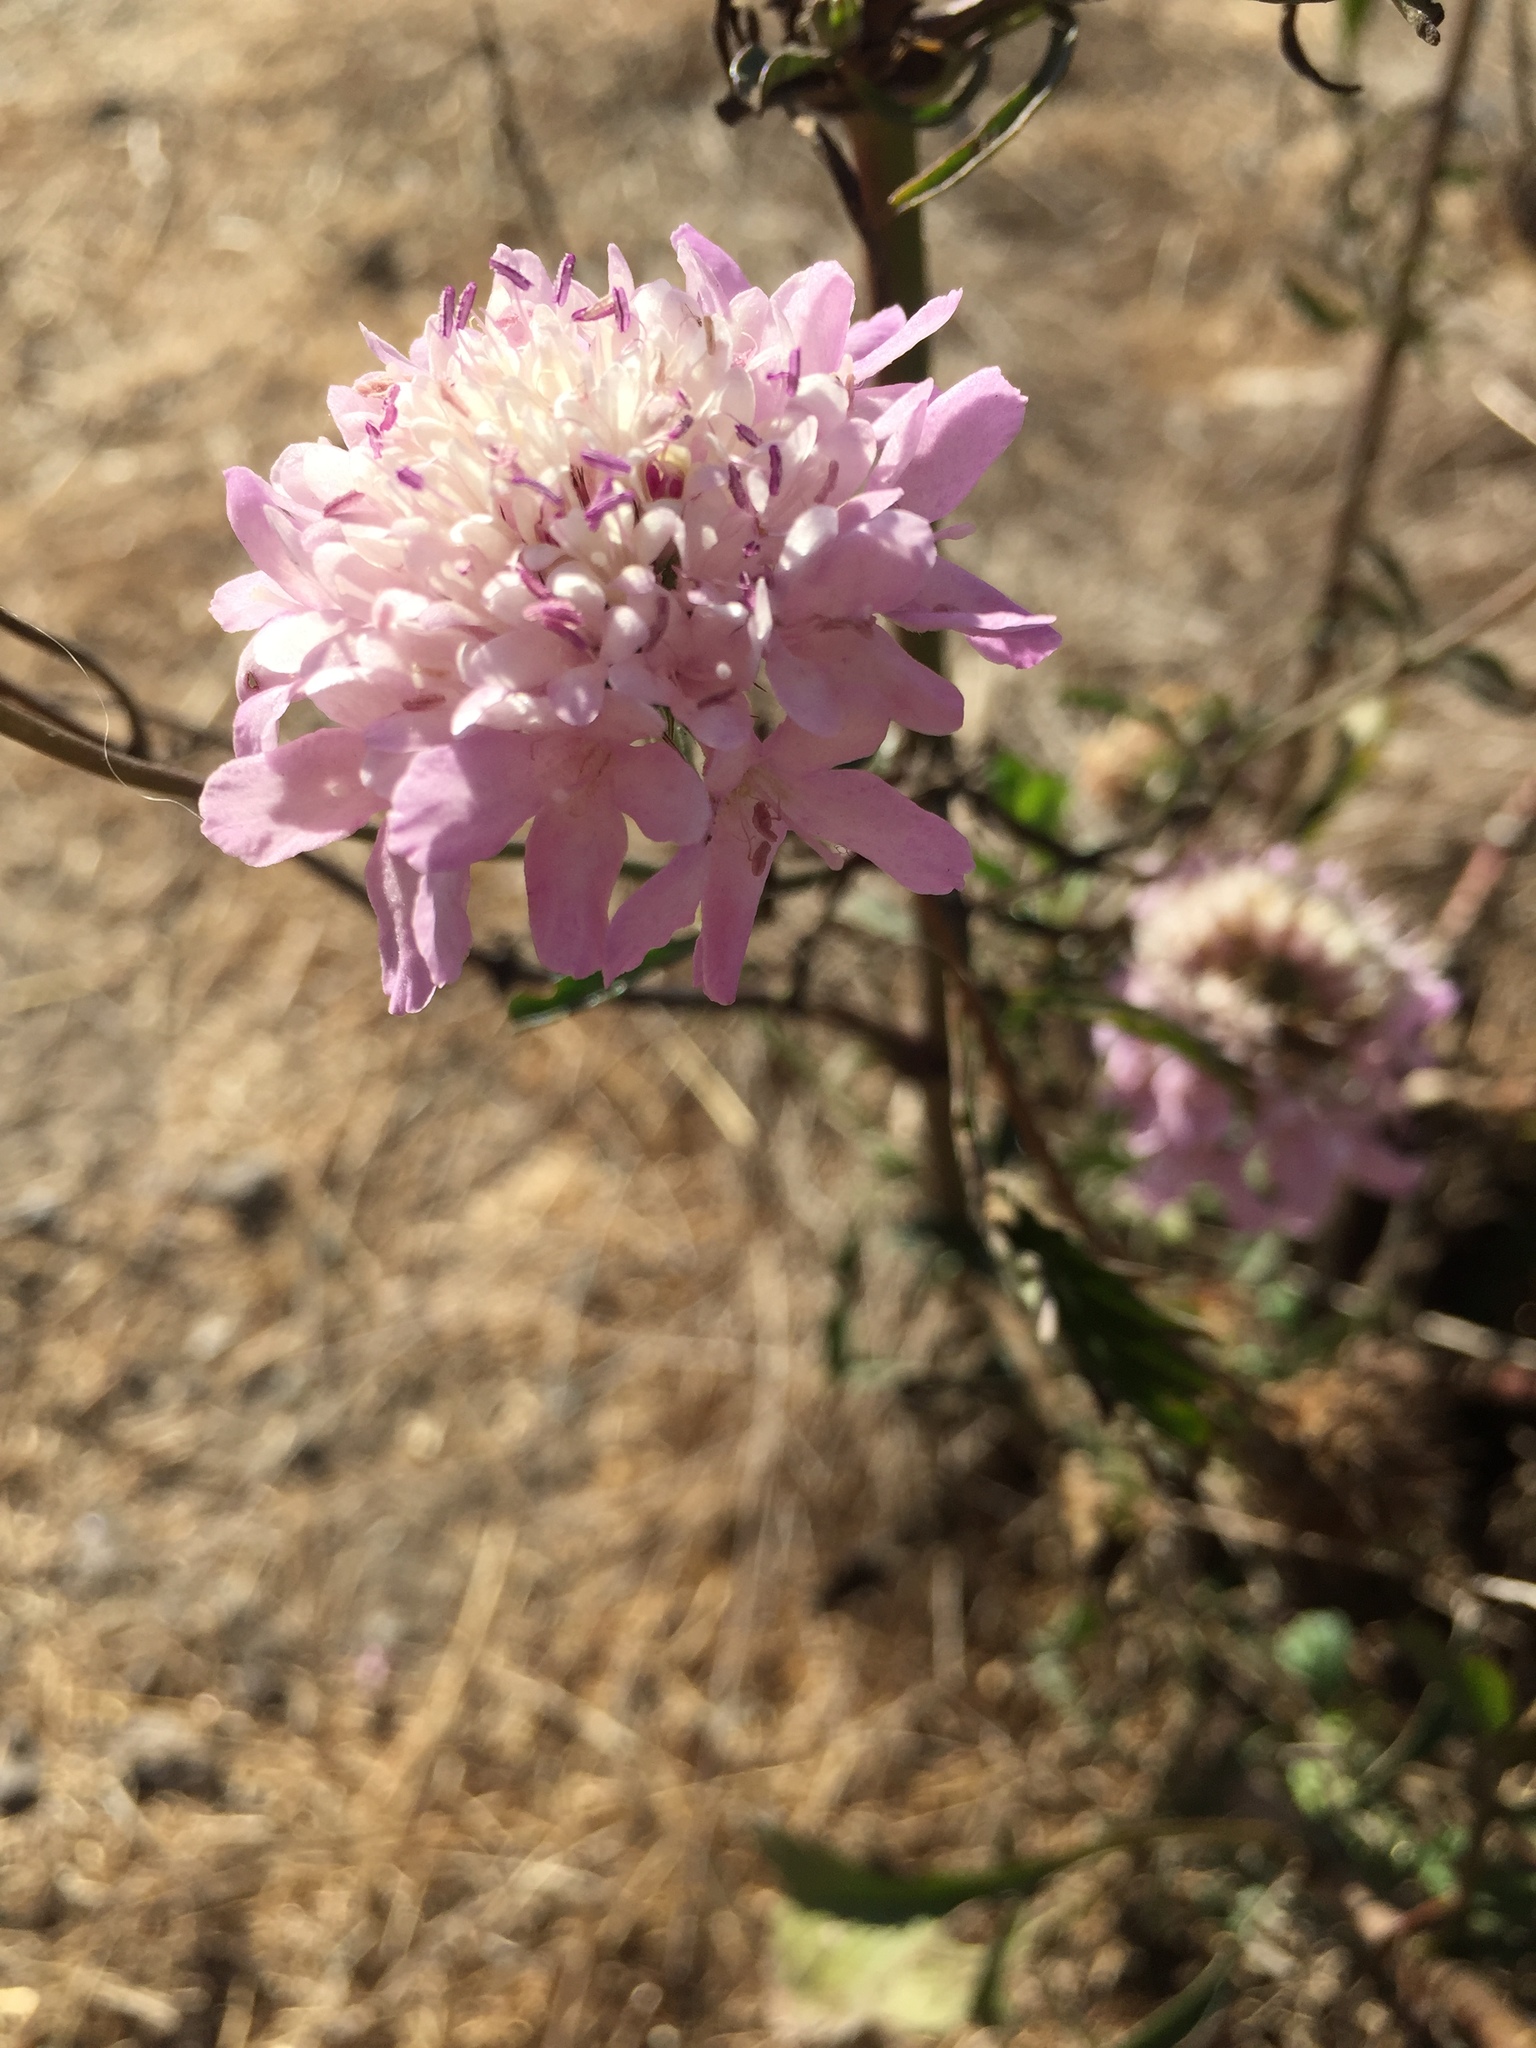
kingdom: Plantae
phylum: Tracheophyta
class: Magnoliopsida
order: Dipsacales
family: Caprifoliaceae
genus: Sixalix
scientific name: Sixalix atropurpurea
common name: Sweet scabious
